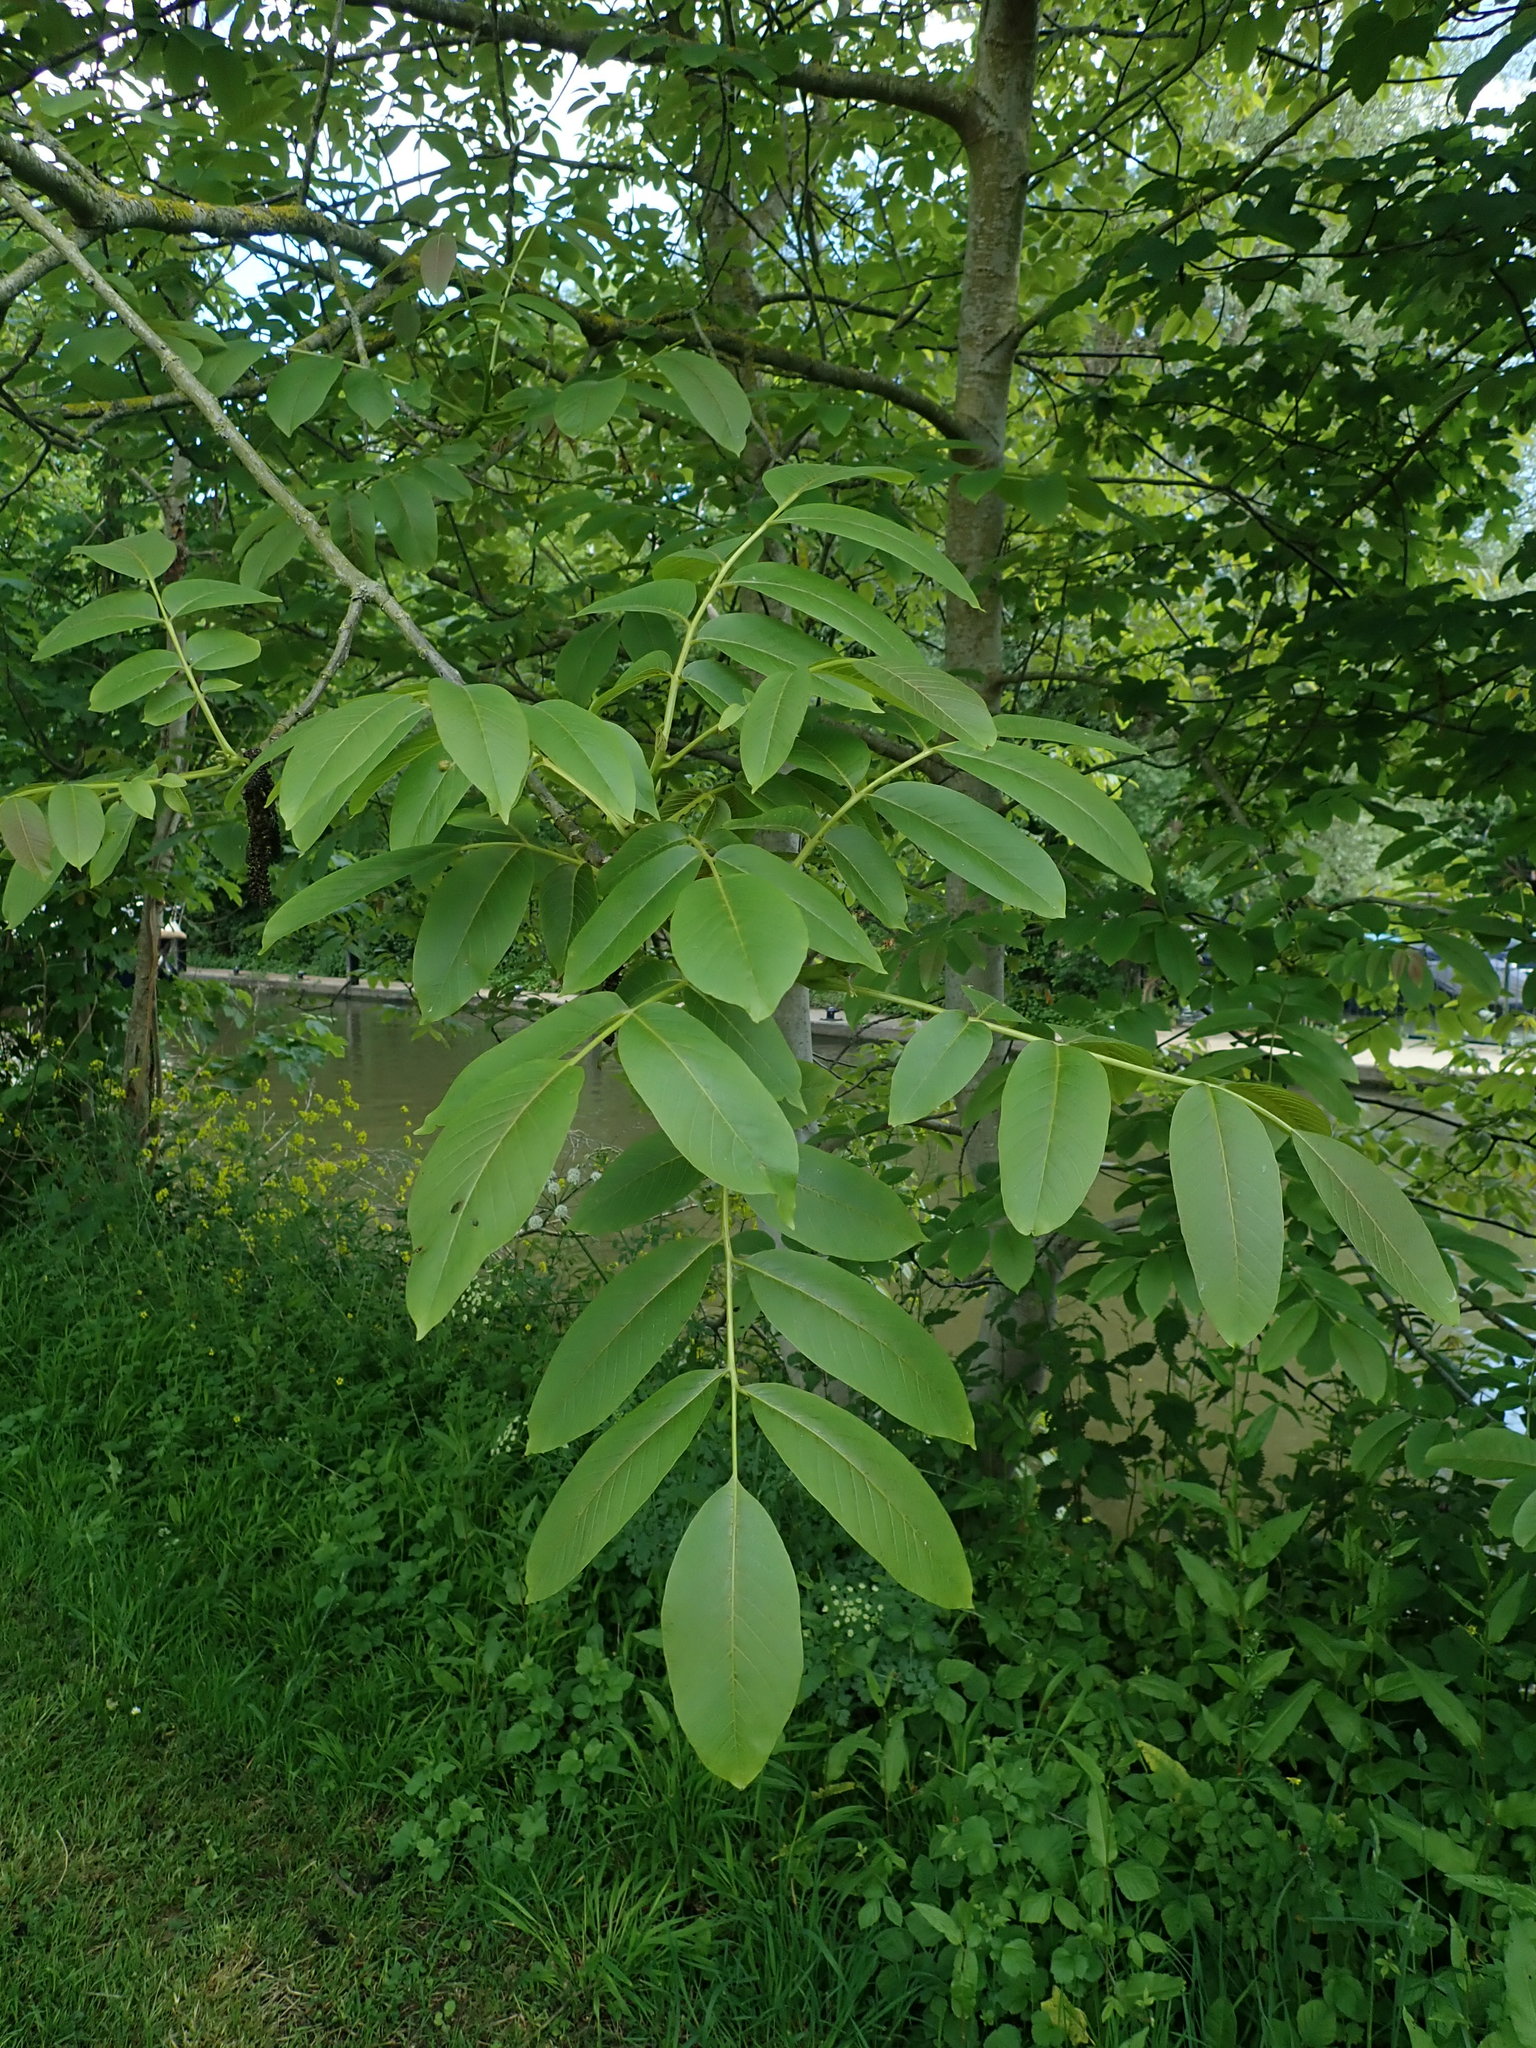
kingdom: Plantae
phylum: Tracheophyta
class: Magnoliopsida
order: Fagales
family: Juglandaceae
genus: Juglans
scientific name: Juglans regia
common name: Walnut
